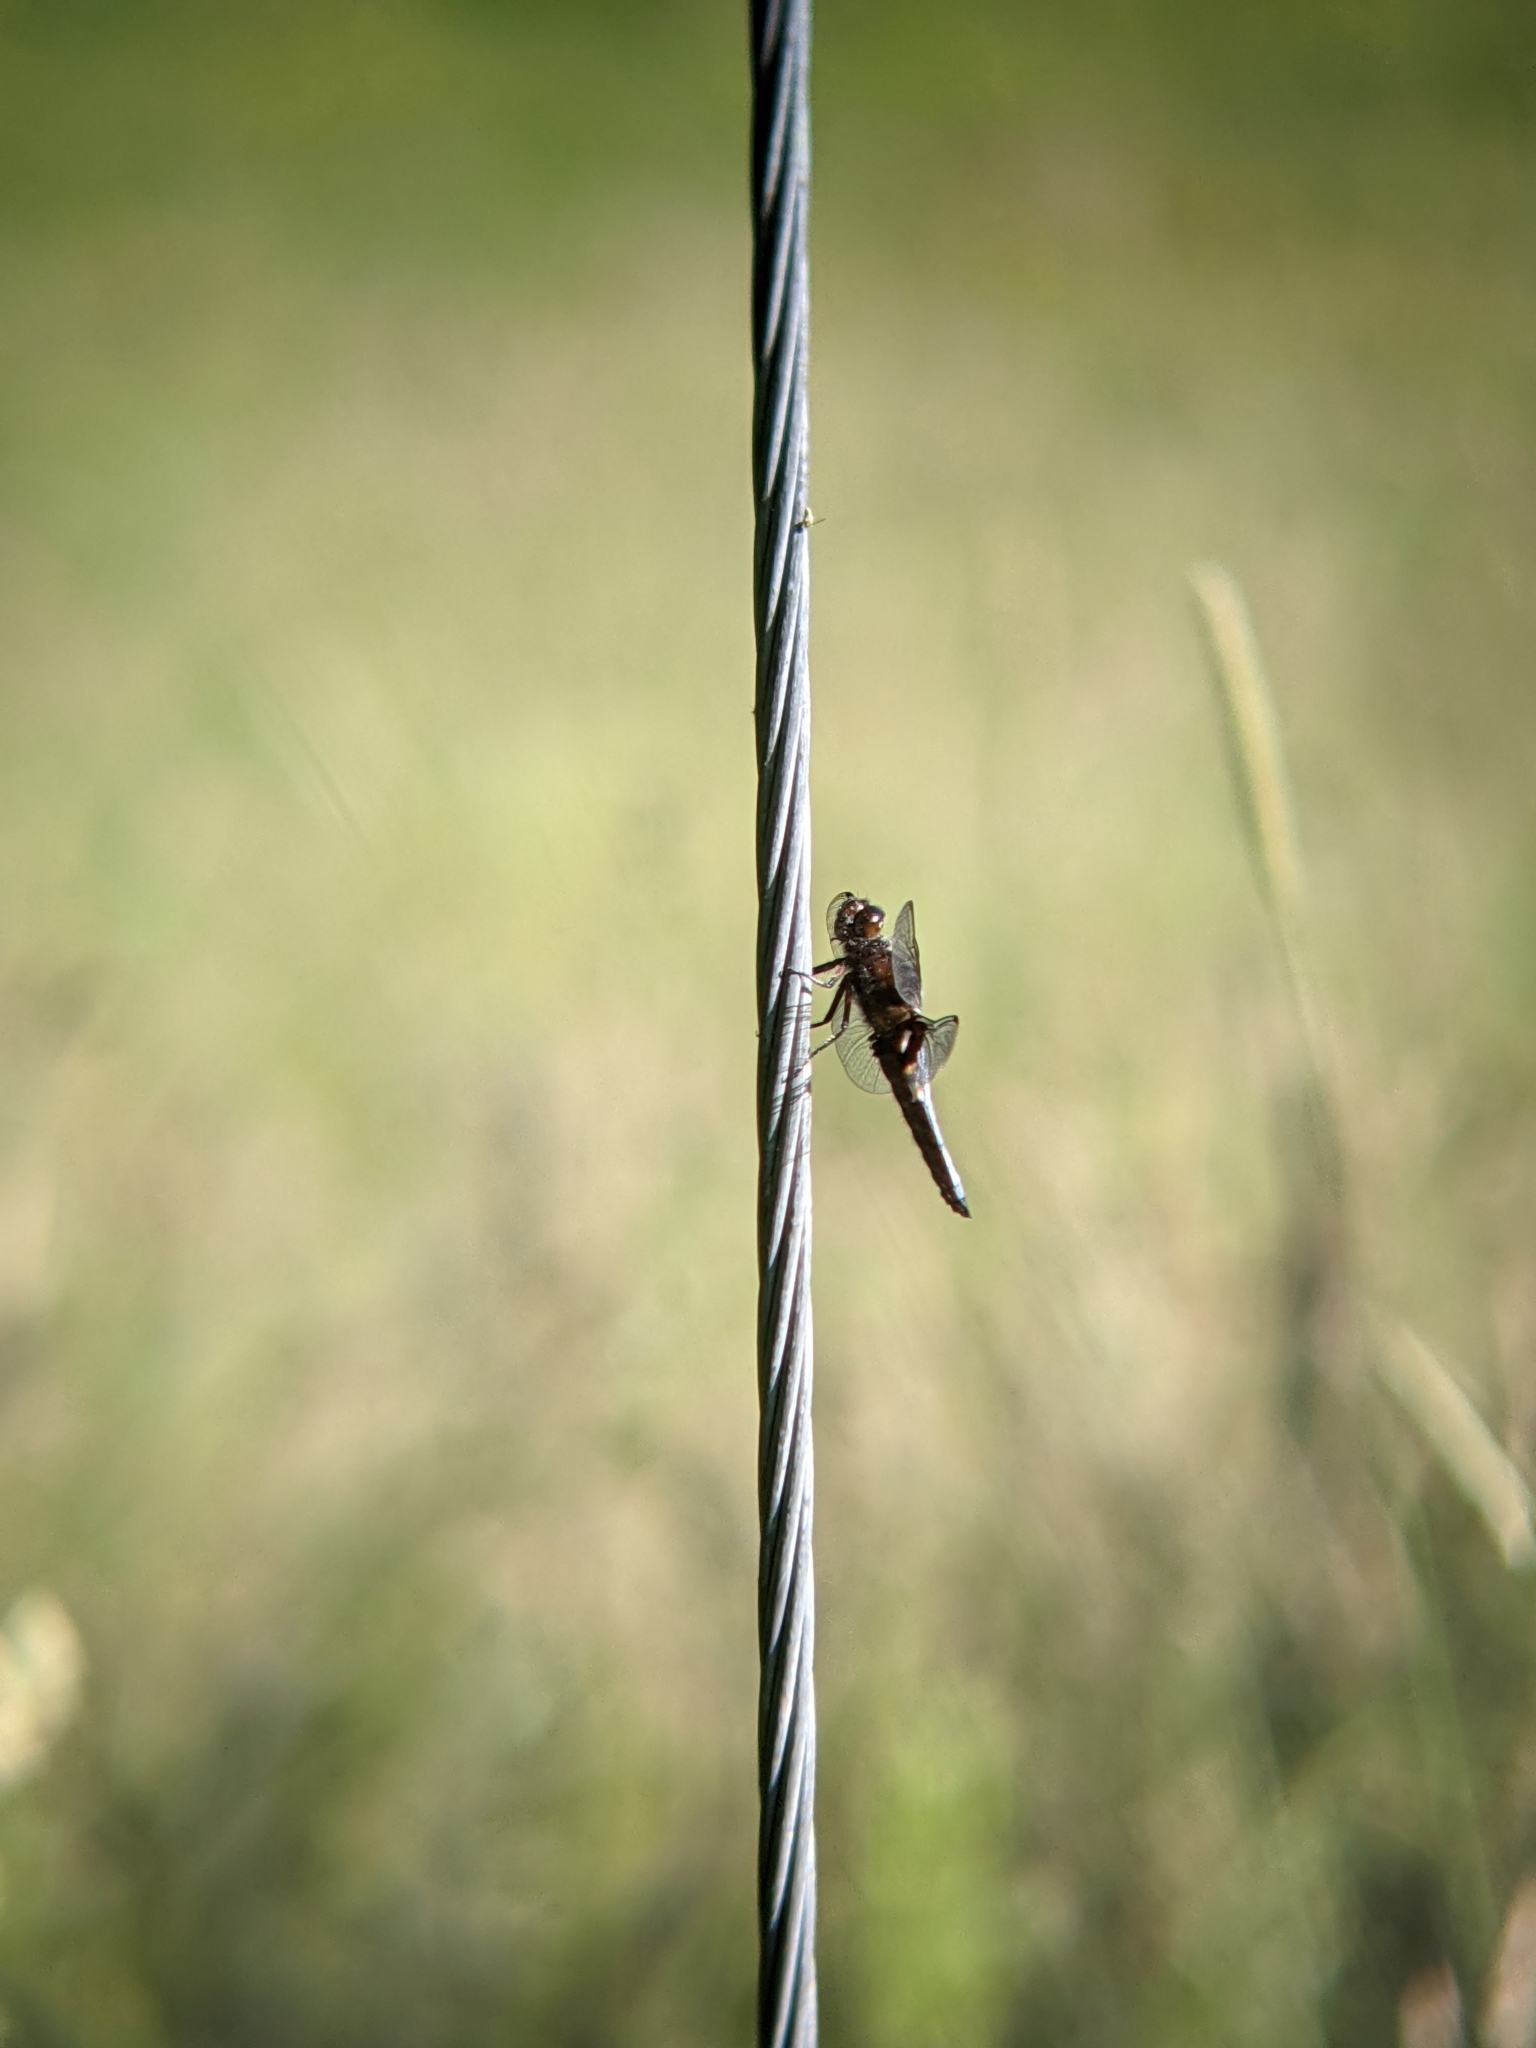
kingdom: Animalia
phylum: Arthropoda
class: Insecta
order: Odonata
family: Libellulidae
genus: Libellula
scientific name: Libellula depressa
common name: Broad-bodied chaser
